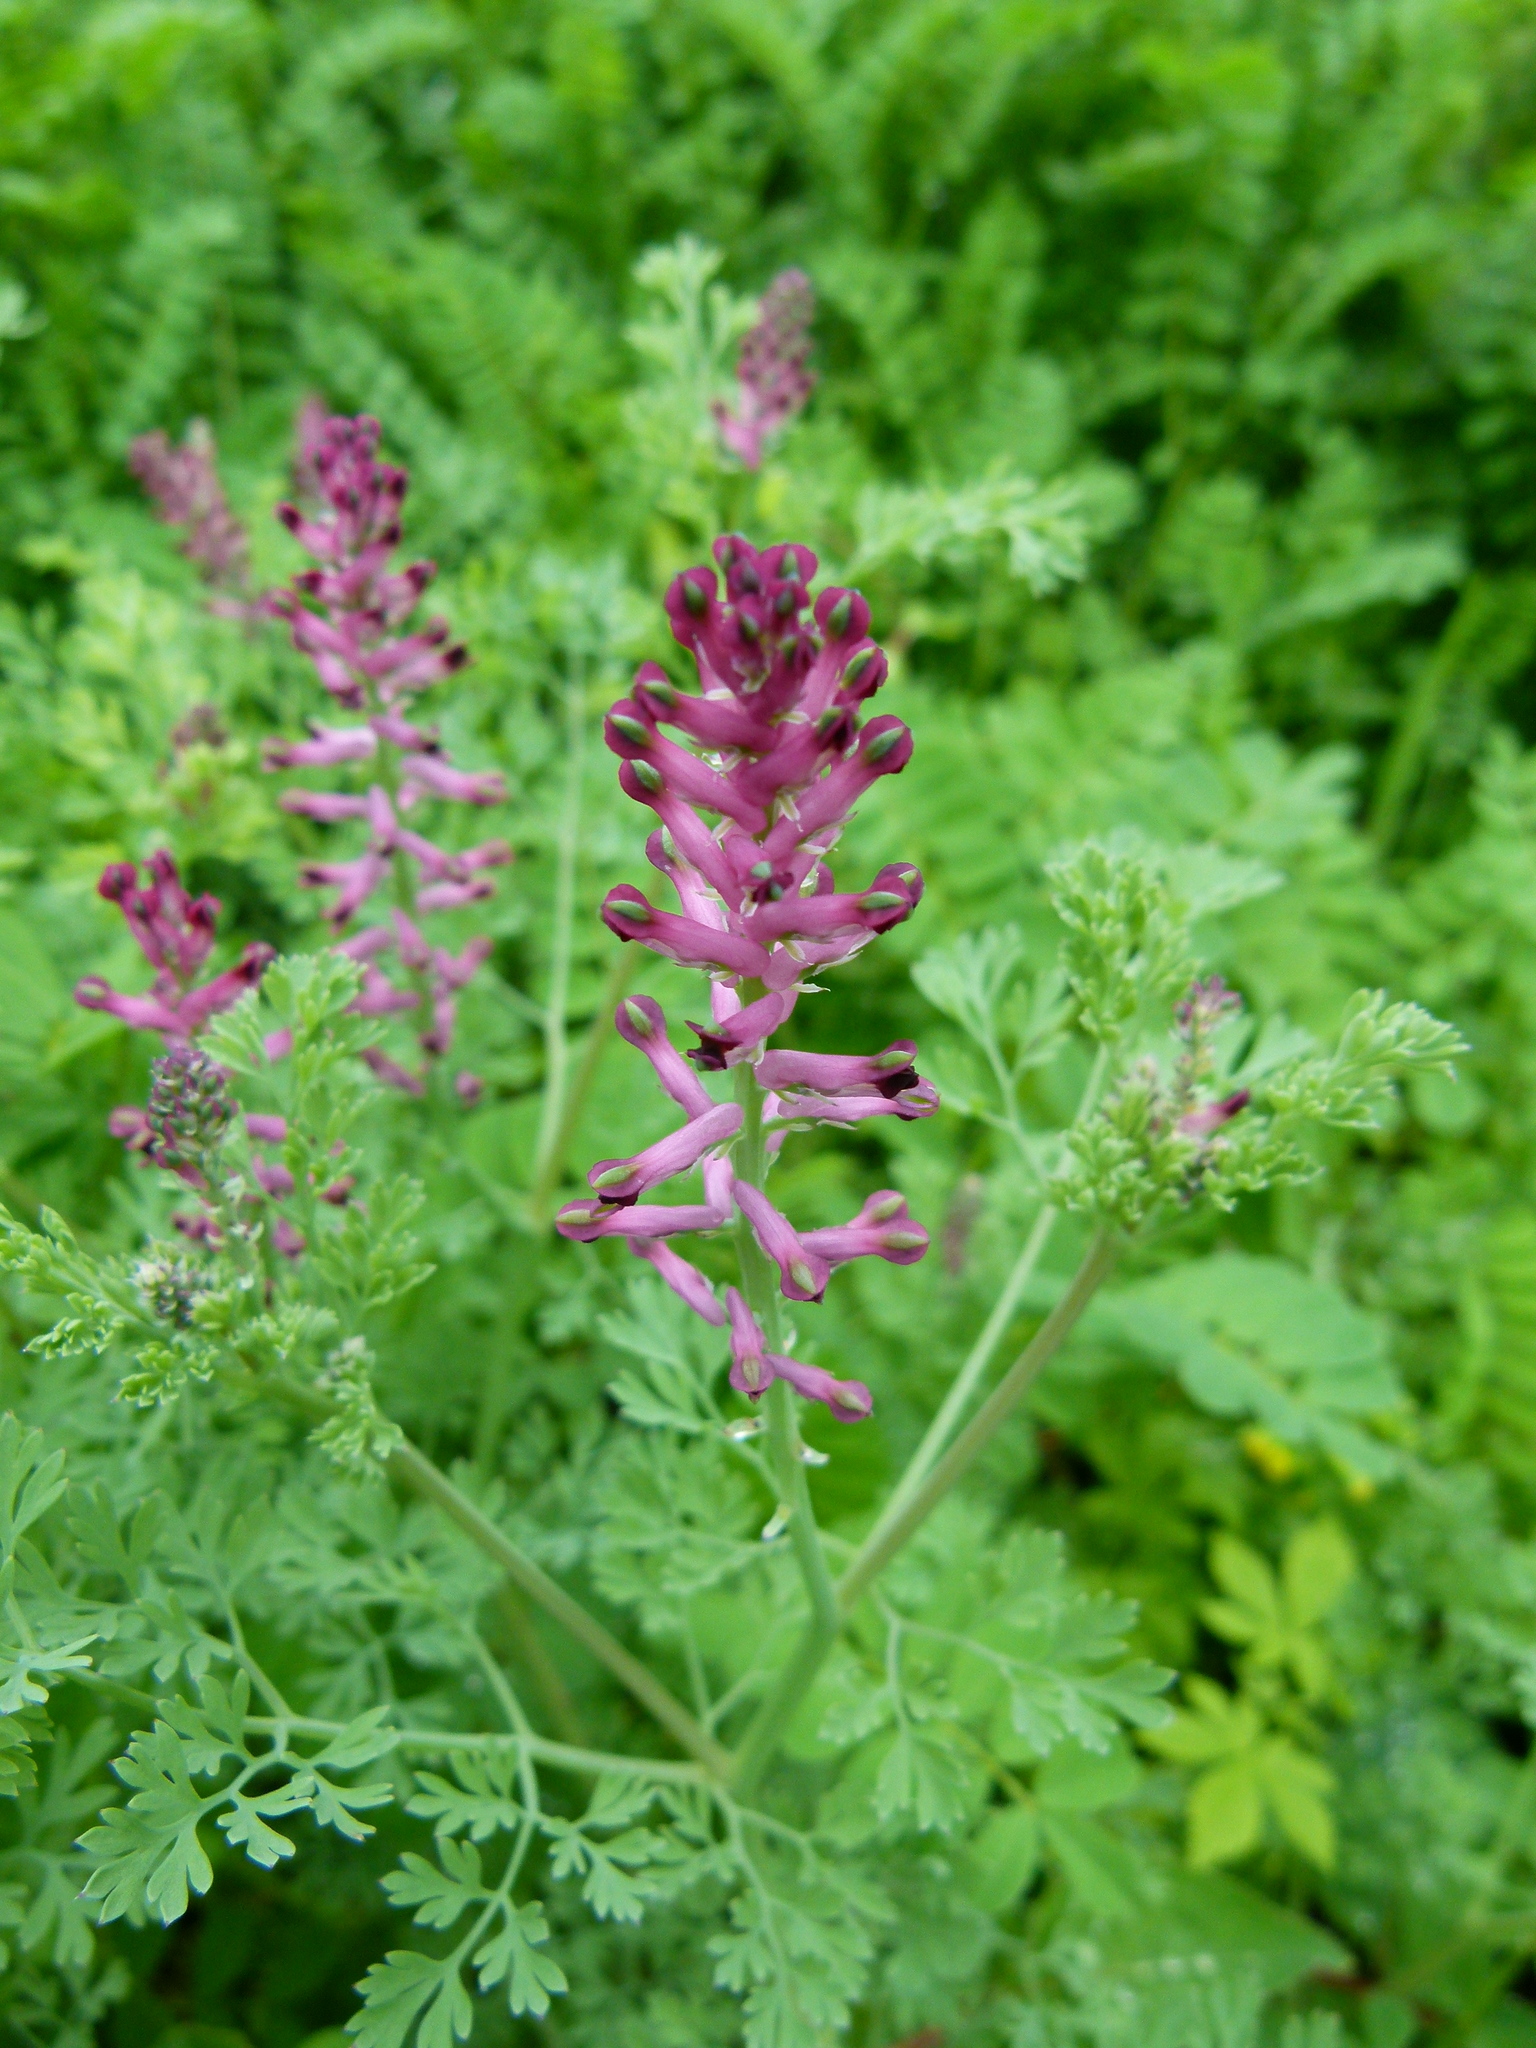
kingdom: Plantae
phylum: Tracheophyta
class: Magnoliopsida
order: Ranunculales
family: Papaveraceae
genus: Fumaria
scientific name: Fumaria officinalis
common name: Common fumitory
